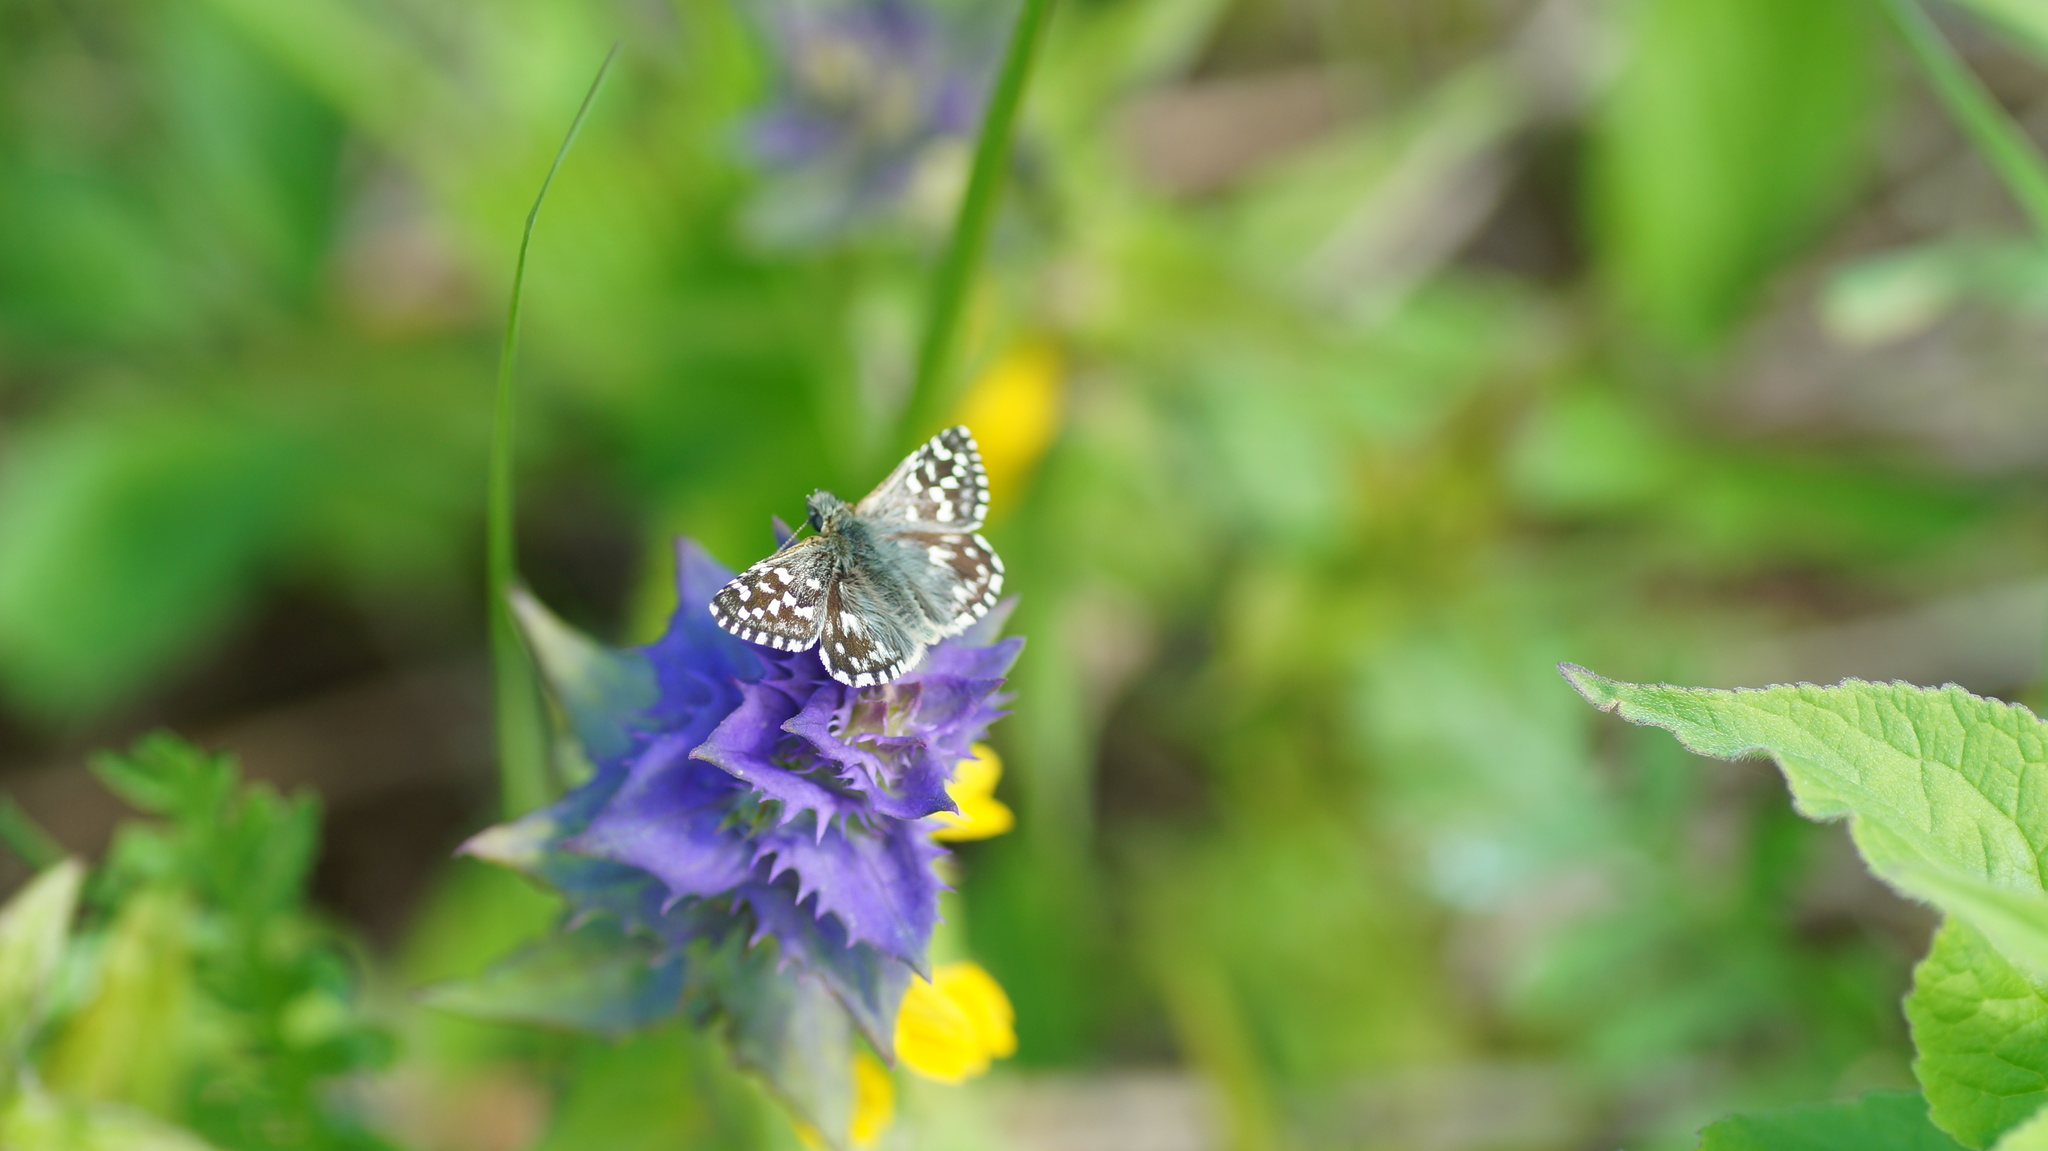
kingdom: Animalia
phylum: Arthropoda
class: Insecta
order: Lepidoptera
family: Hesperiidae
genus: Pyrgus
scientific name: Pyrgus malvae
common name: Grizzled skipper
